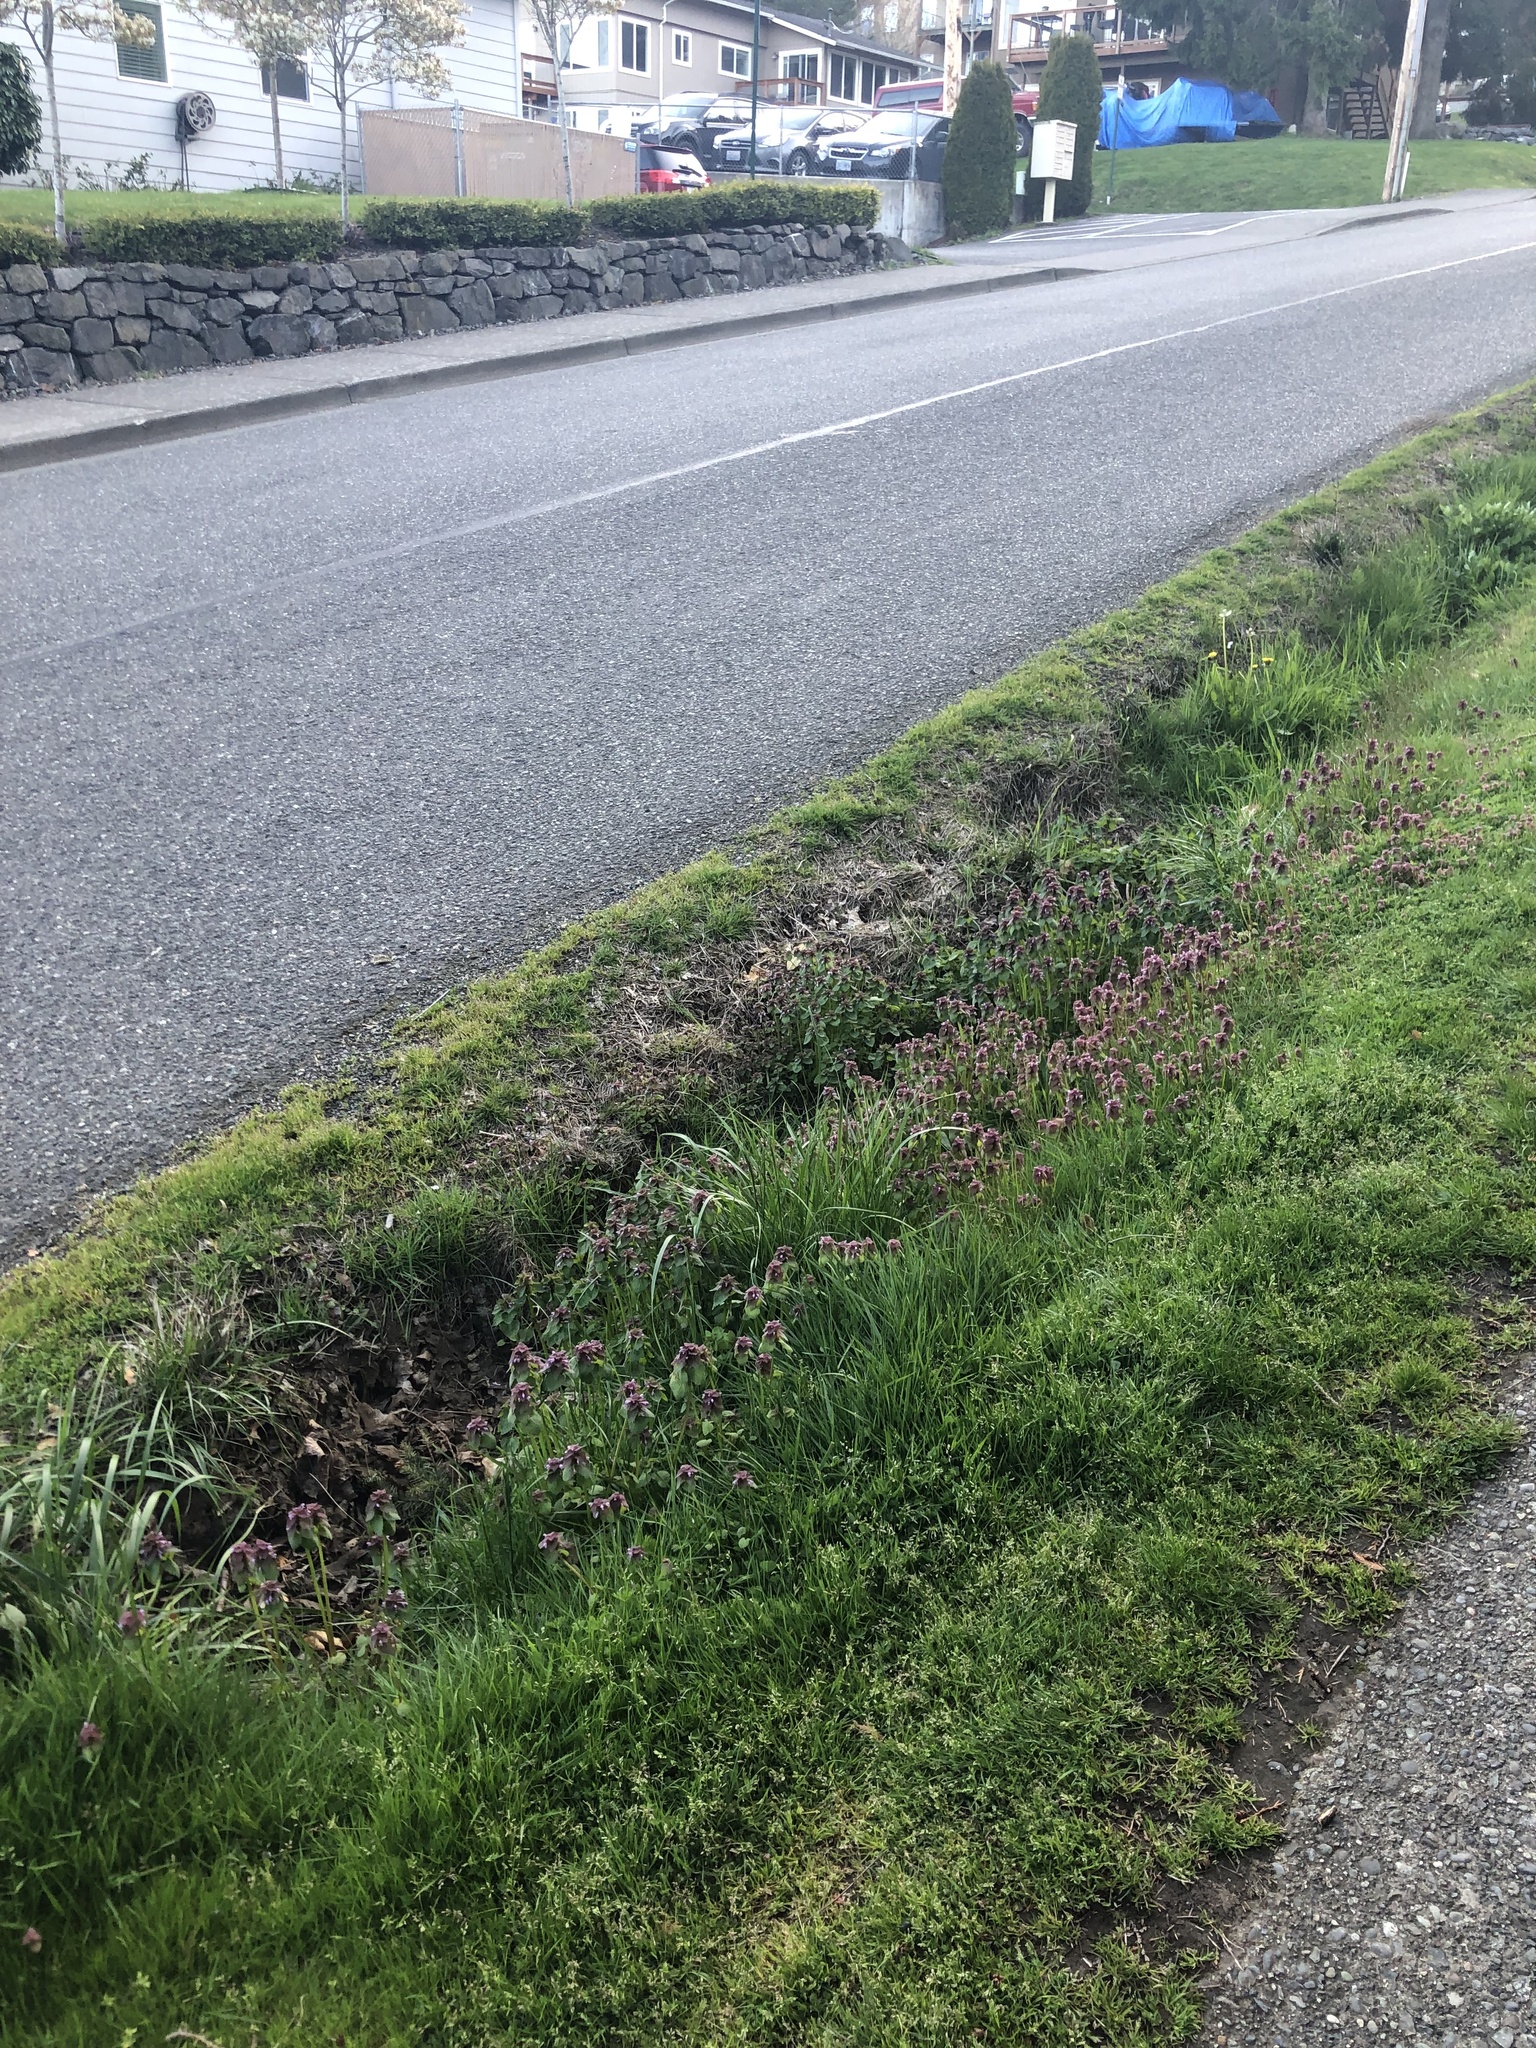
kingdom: Plantae
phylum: Tracheophyta
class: Magnoliopsida
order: Lamiales
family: Lamiaceae
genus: Lamium
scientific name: Lamium purpureum
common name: Red dead-nettle
